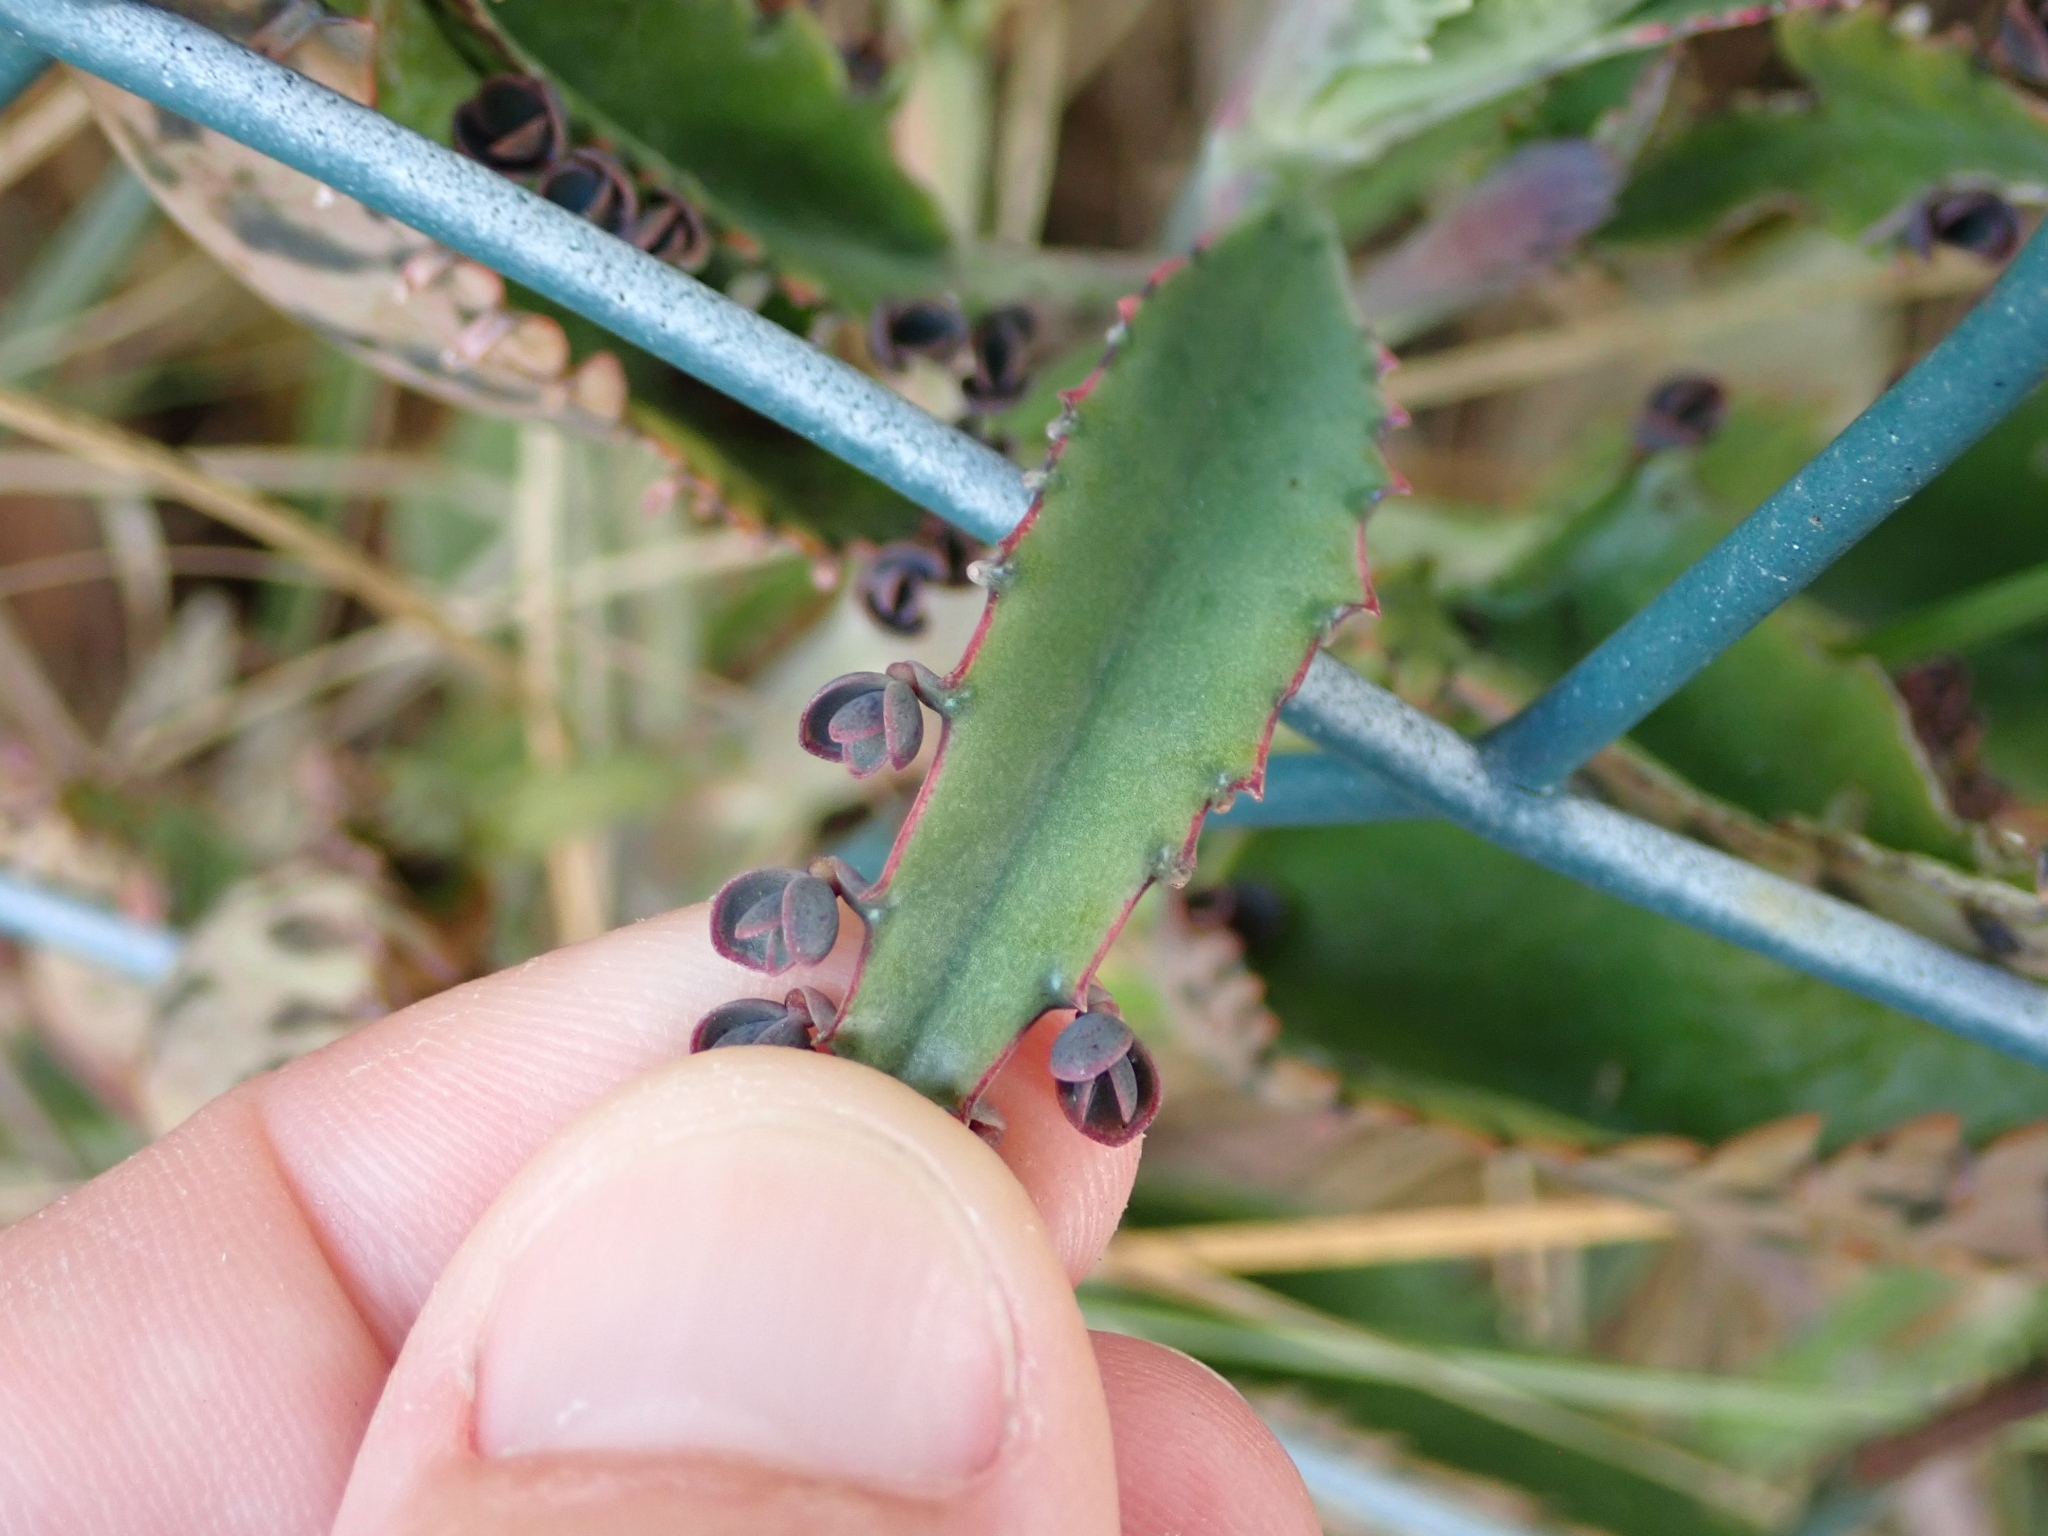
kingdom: Plantae
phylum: Tracheophyta
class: Magnoliopsida
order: Saxifragales
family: Crassulaceae
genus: Kalanchoe
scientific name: Kalanchoe houghtonii
